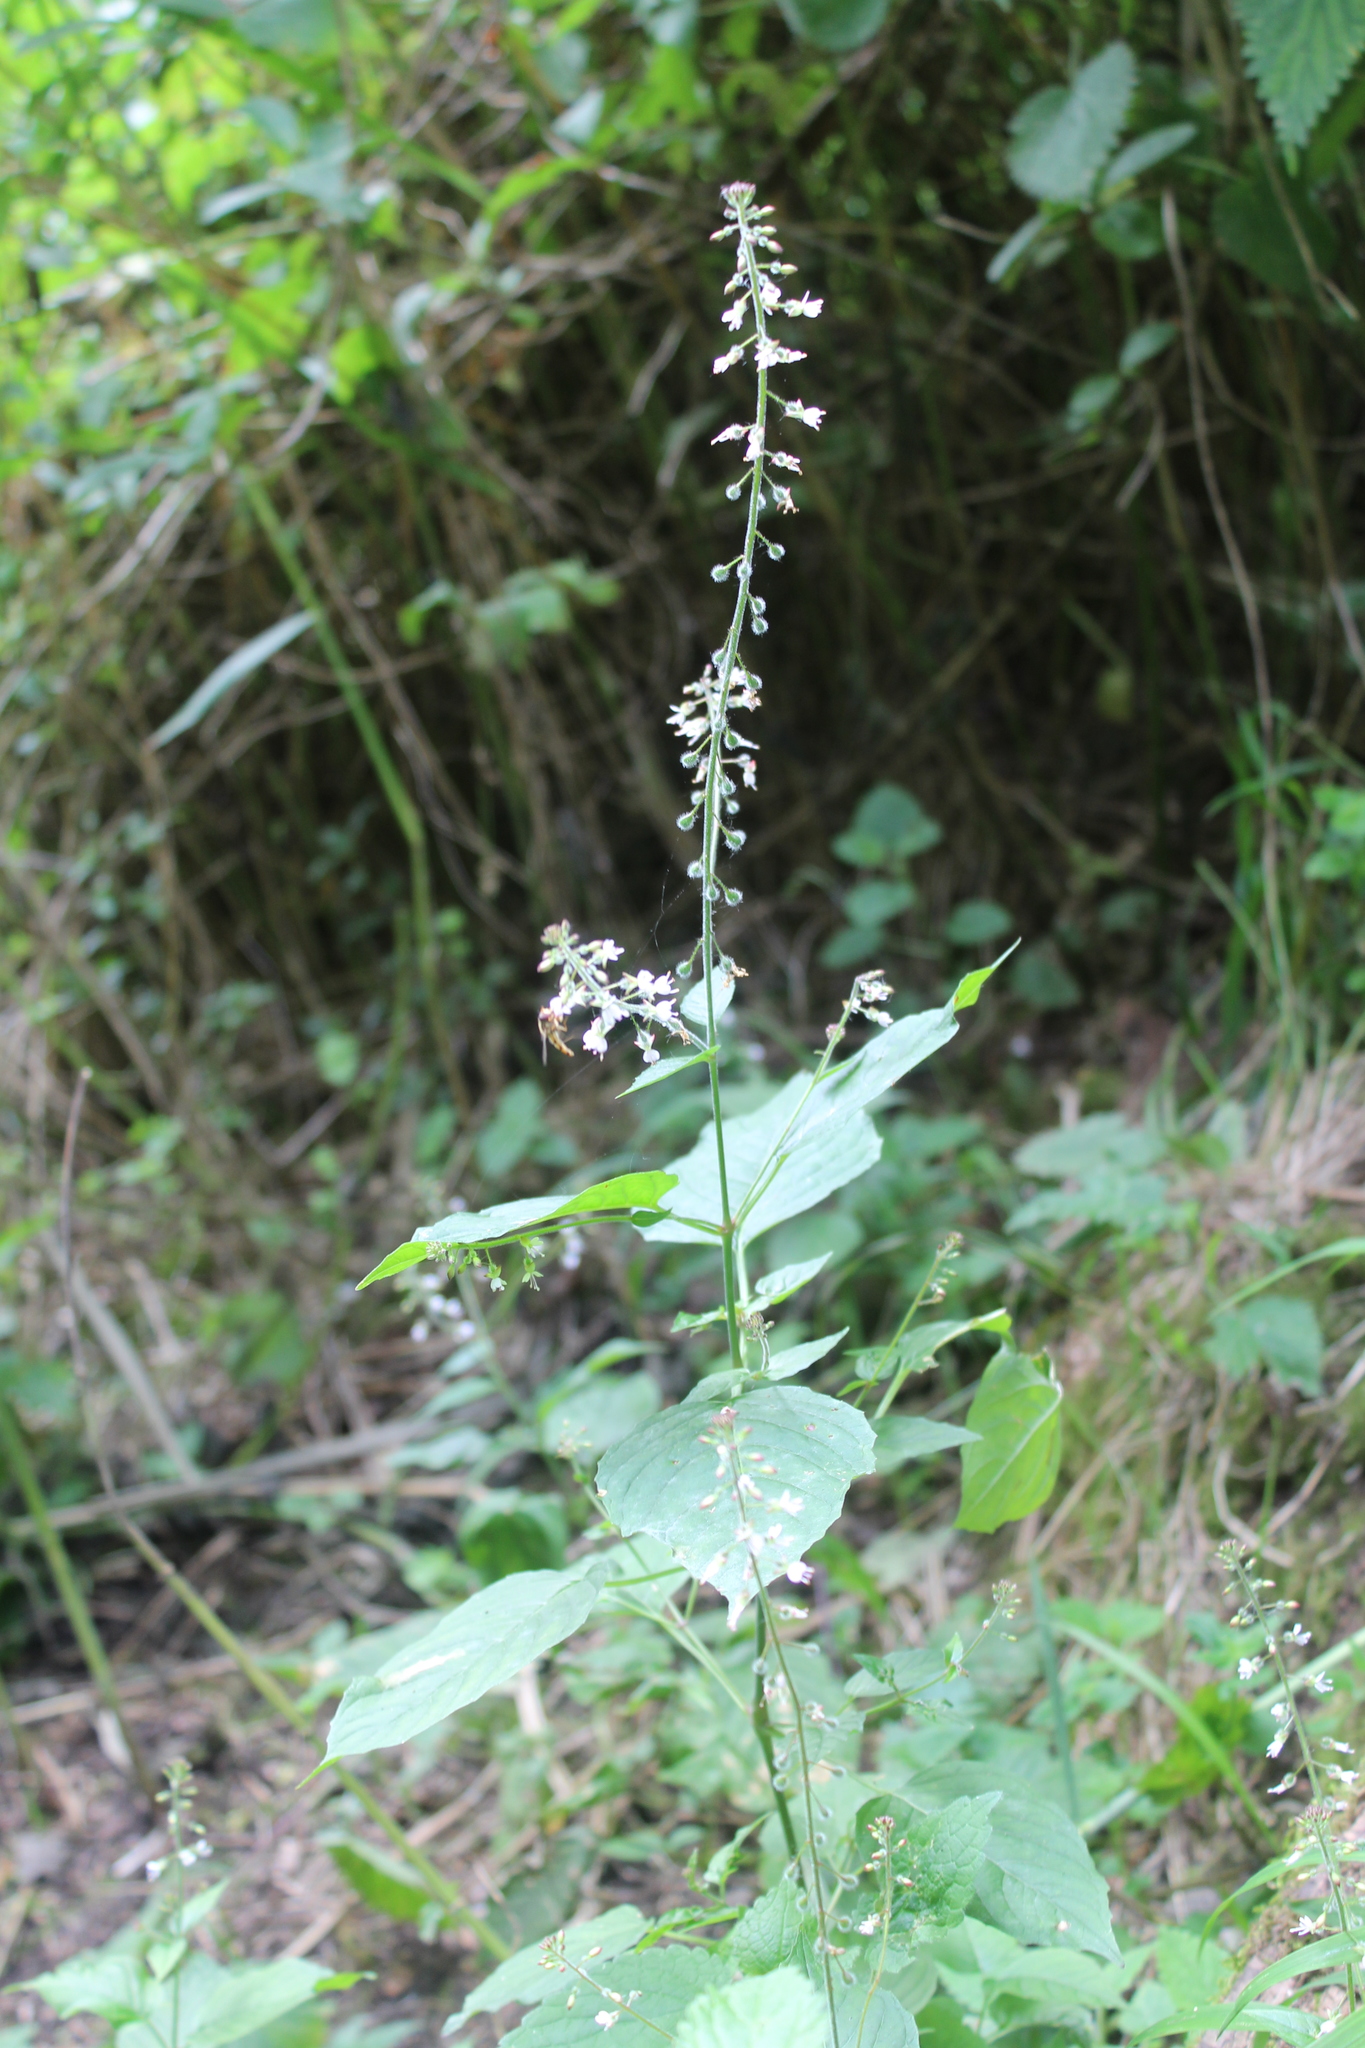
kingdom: Plantae
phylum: Tracheophyta
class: Magnoliopsida
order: Myrtales
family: Onagraceae
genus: Circaea
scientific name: Circaea lutetiana
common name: Enchanter's-nightshade
